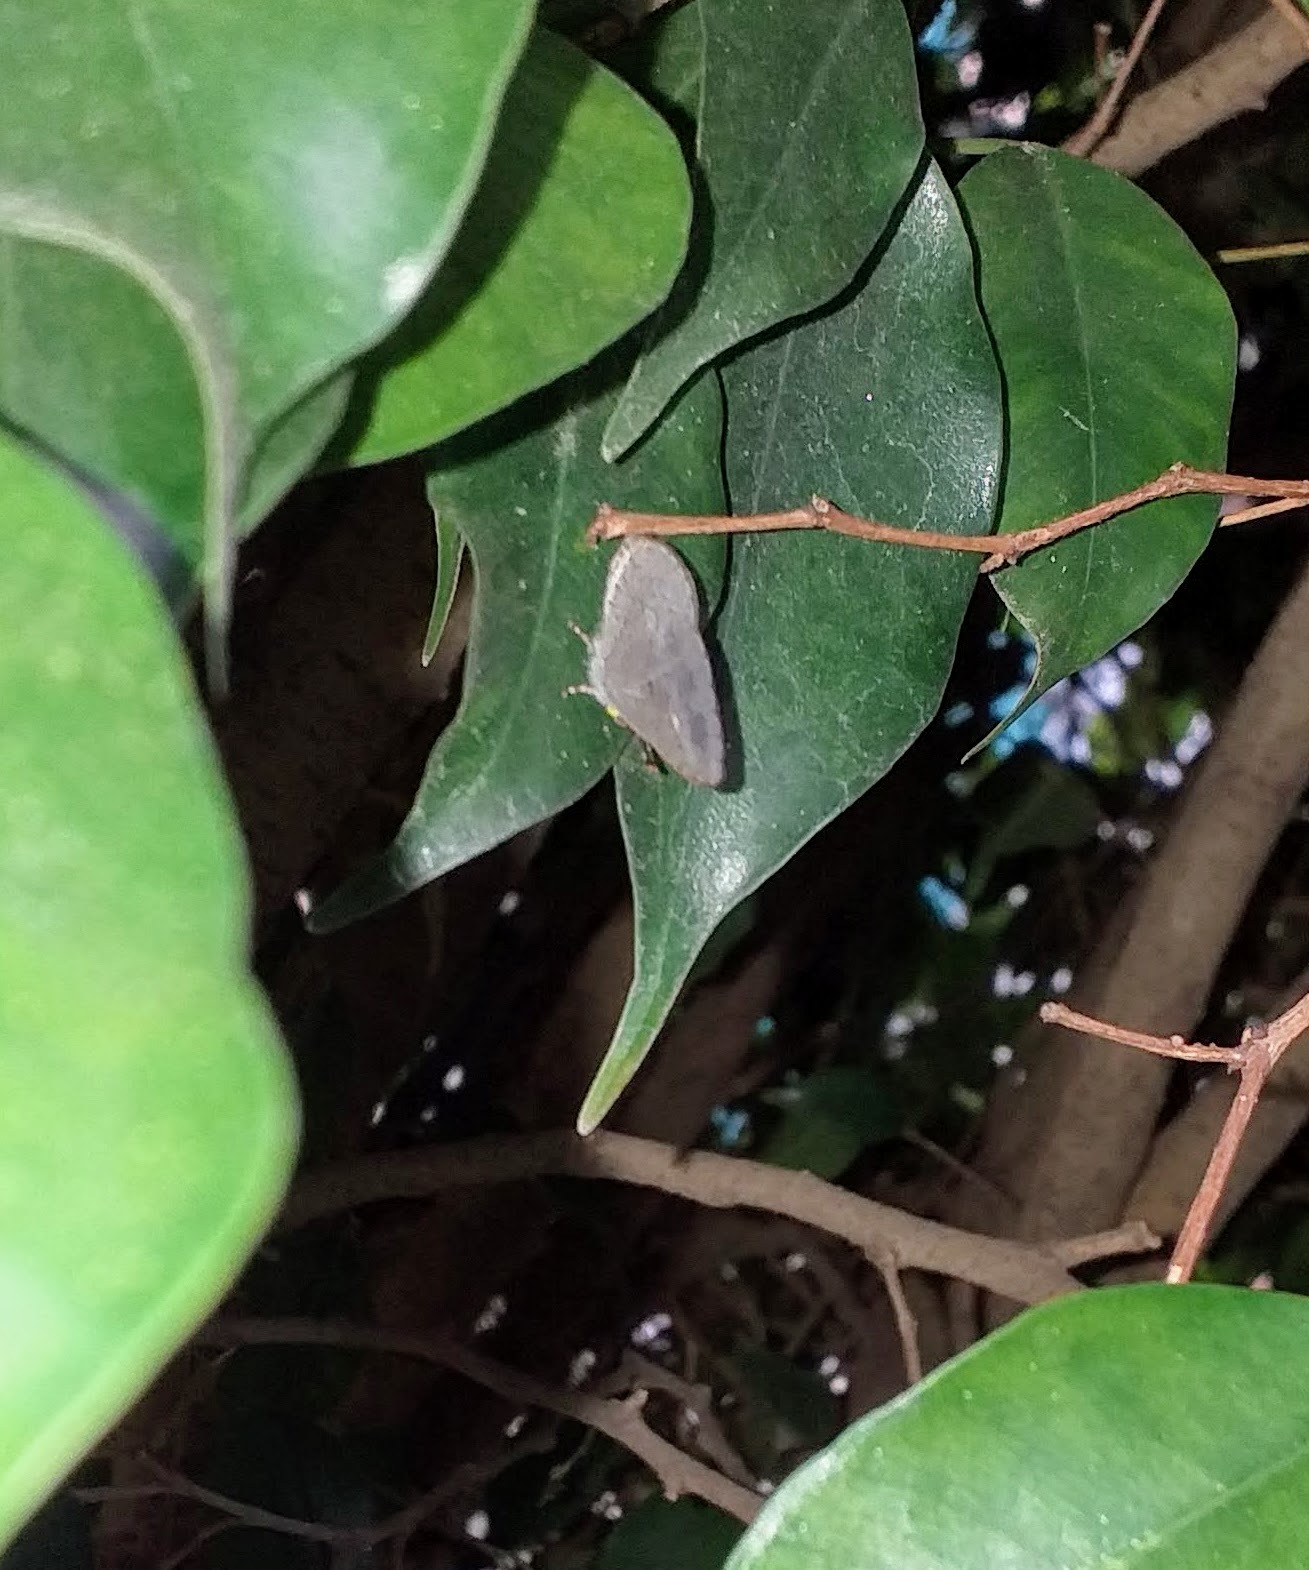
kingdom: Animalia
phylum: Arthropoda
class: Insecta
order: Lepidoptera
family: Lycaenidae
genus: Spalgis
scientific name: Spalgis epius
